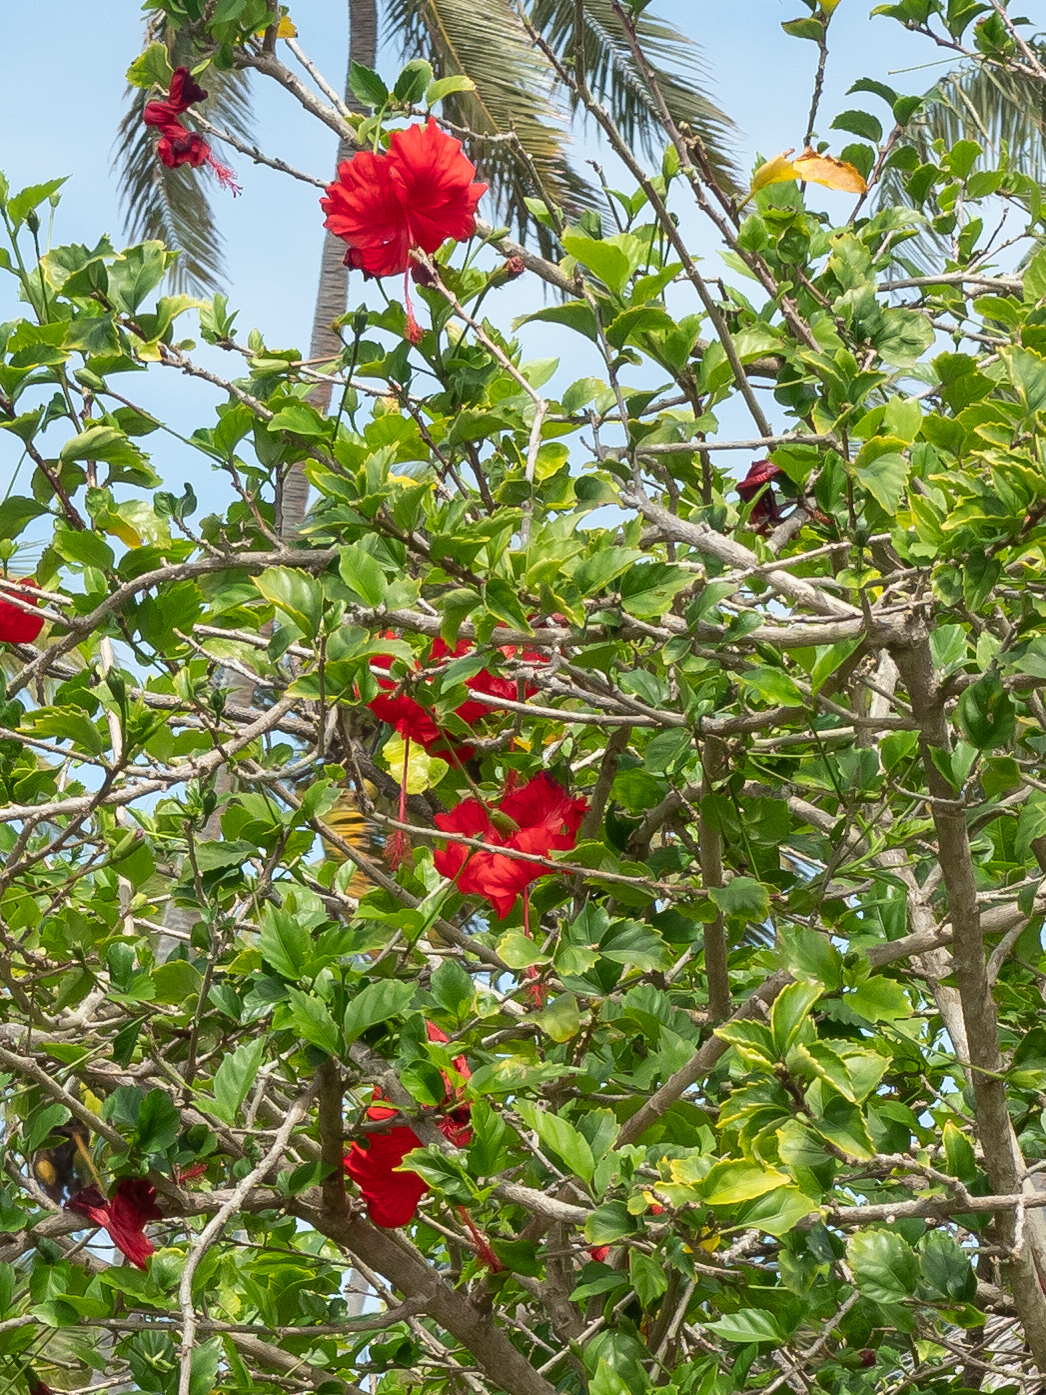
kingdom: Plantae
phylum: Tracheophyta
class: Magnoliopsida
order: Malvales
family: Malvaceae
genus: Hibiscus
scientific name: Hibiscus archeri
